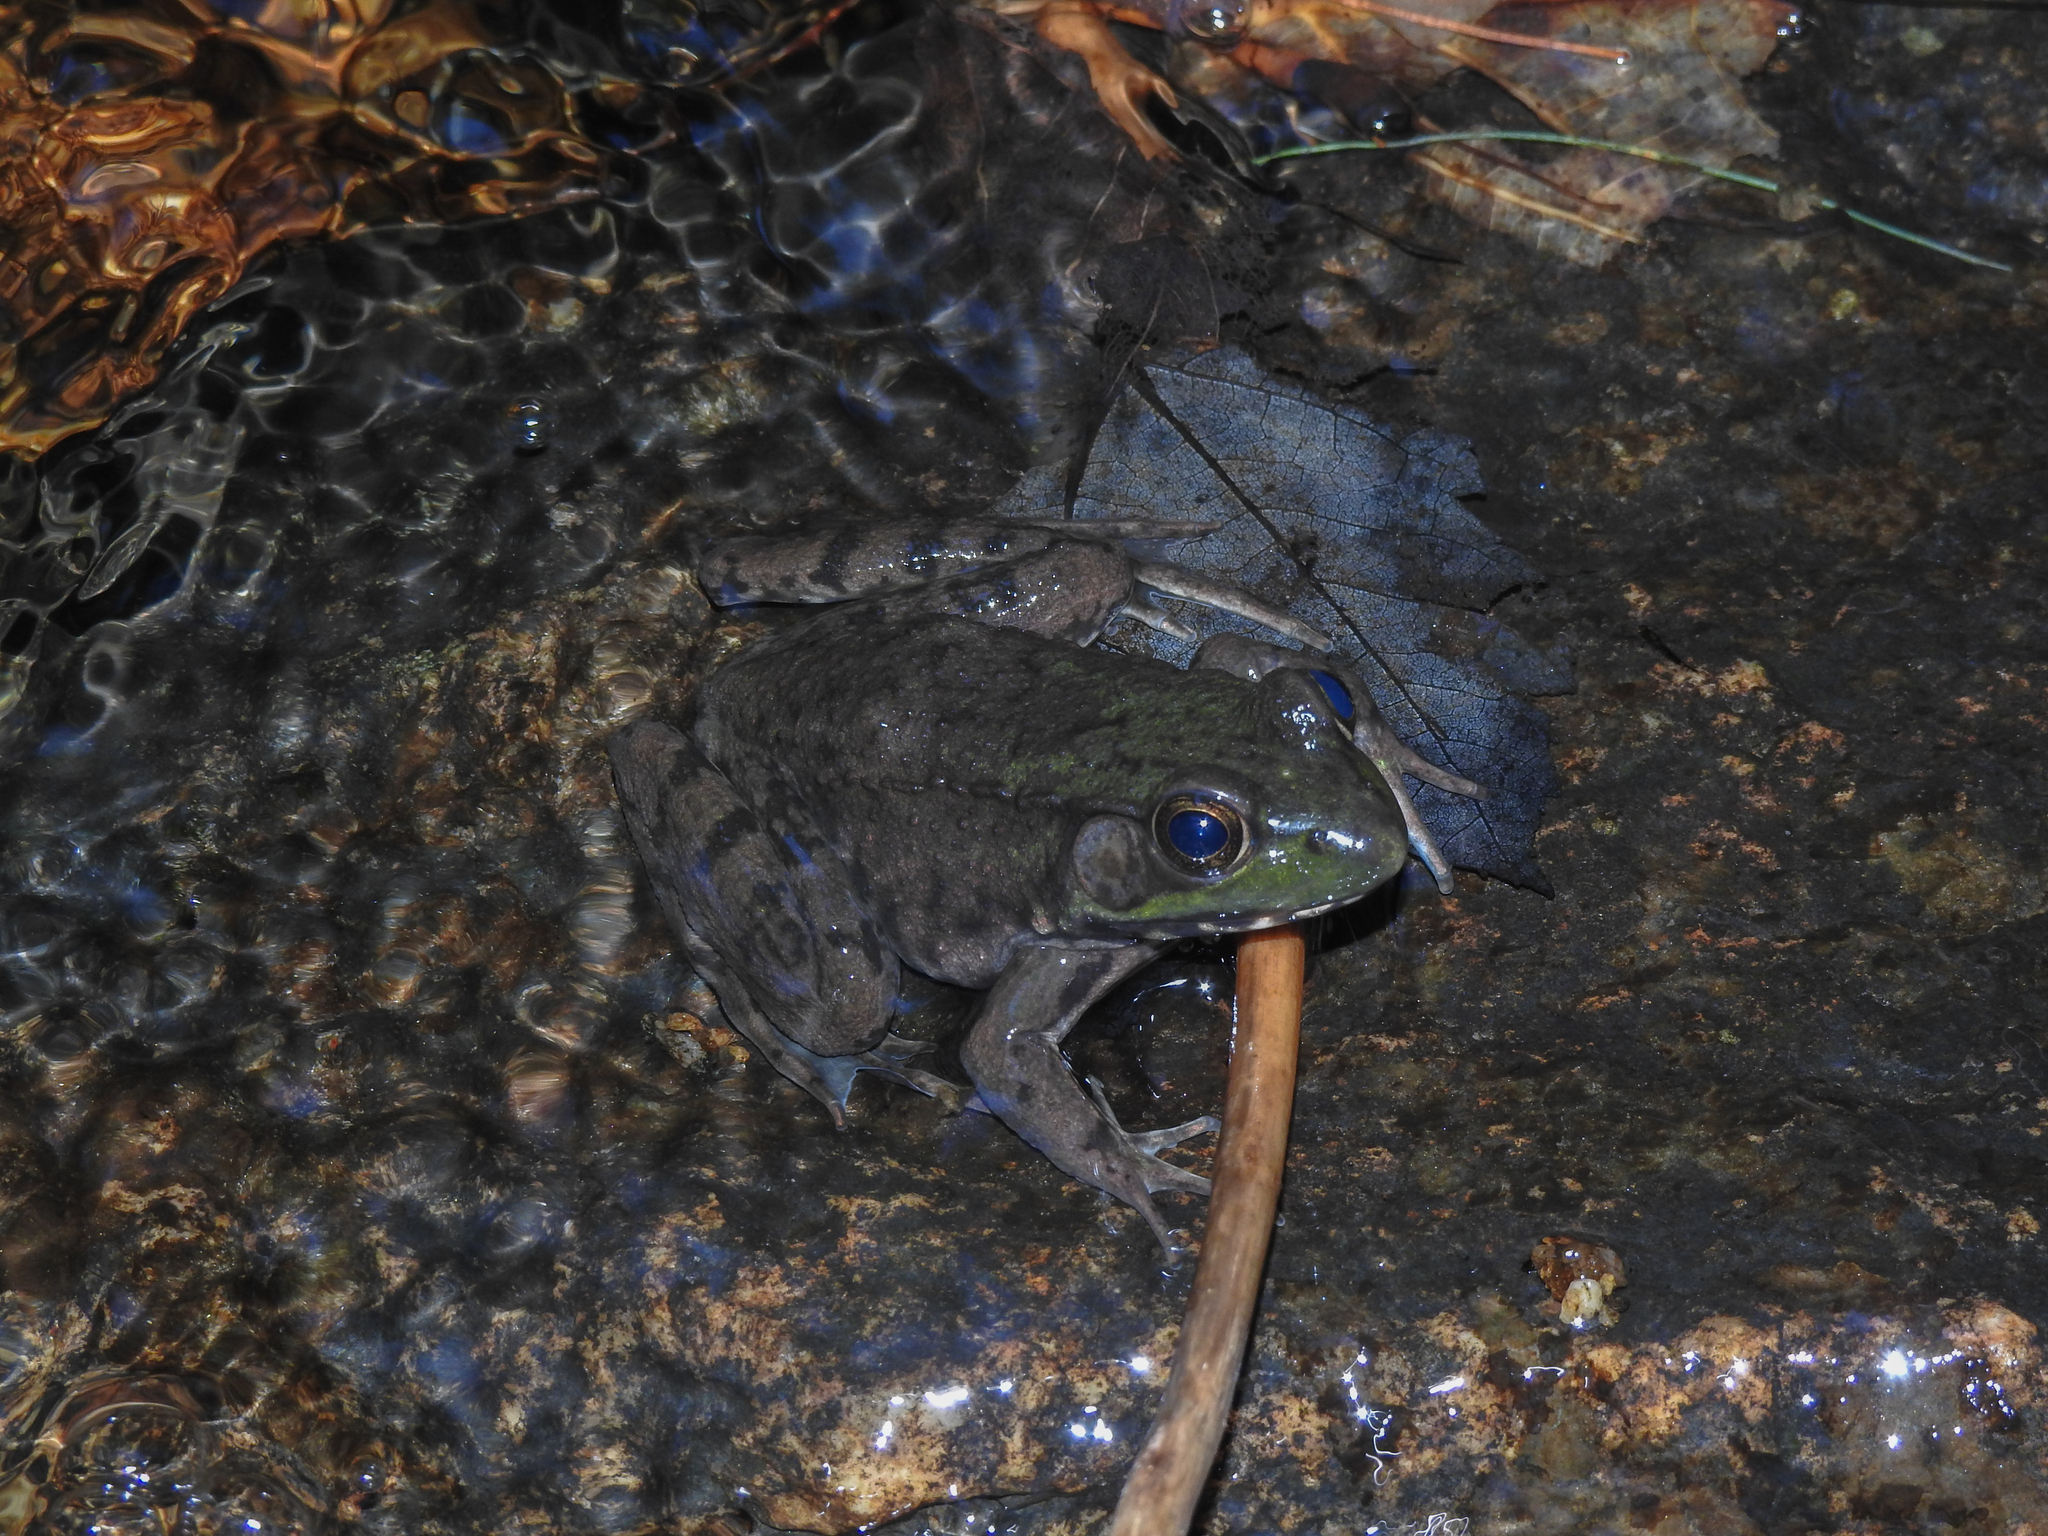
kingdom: Animalia
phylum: Chordata
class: Amphibia
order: Anura
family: Ranidae
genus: Lithobates
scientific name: Lithobates clamitans
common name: Green frog
